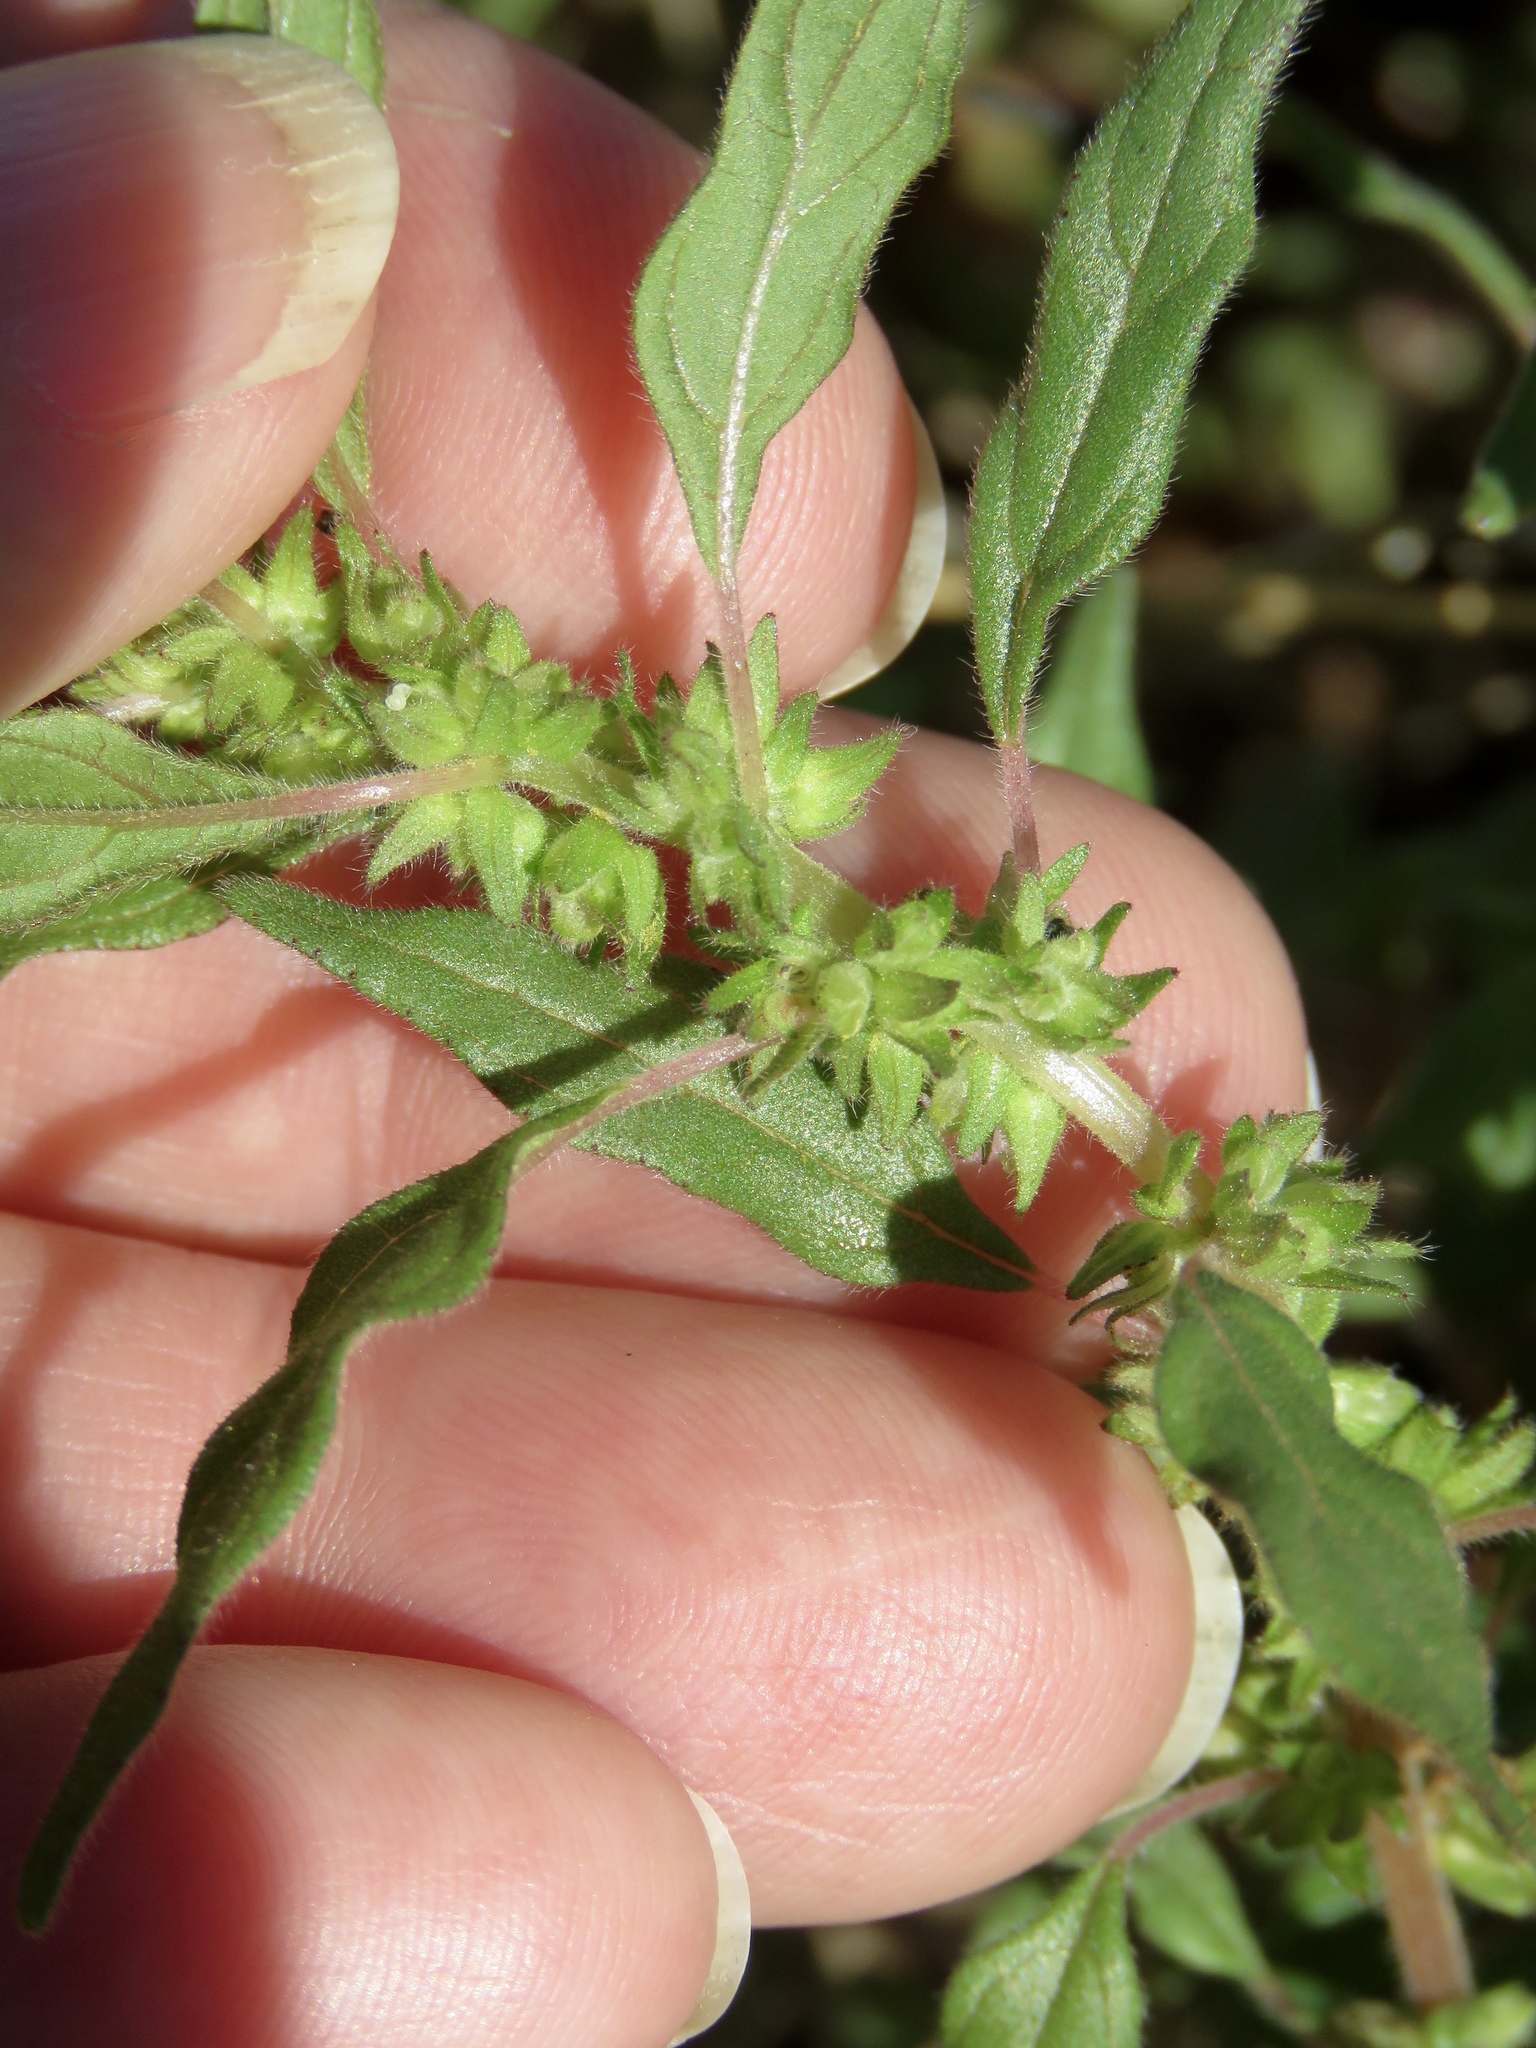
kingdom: Plantae
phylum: Tracheophyta
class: Magnoliopsida
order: Rosales
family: Urticaceae
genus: Parietaria
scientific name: Parietaria pensylvanica
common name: Pennsylvania pellitory
